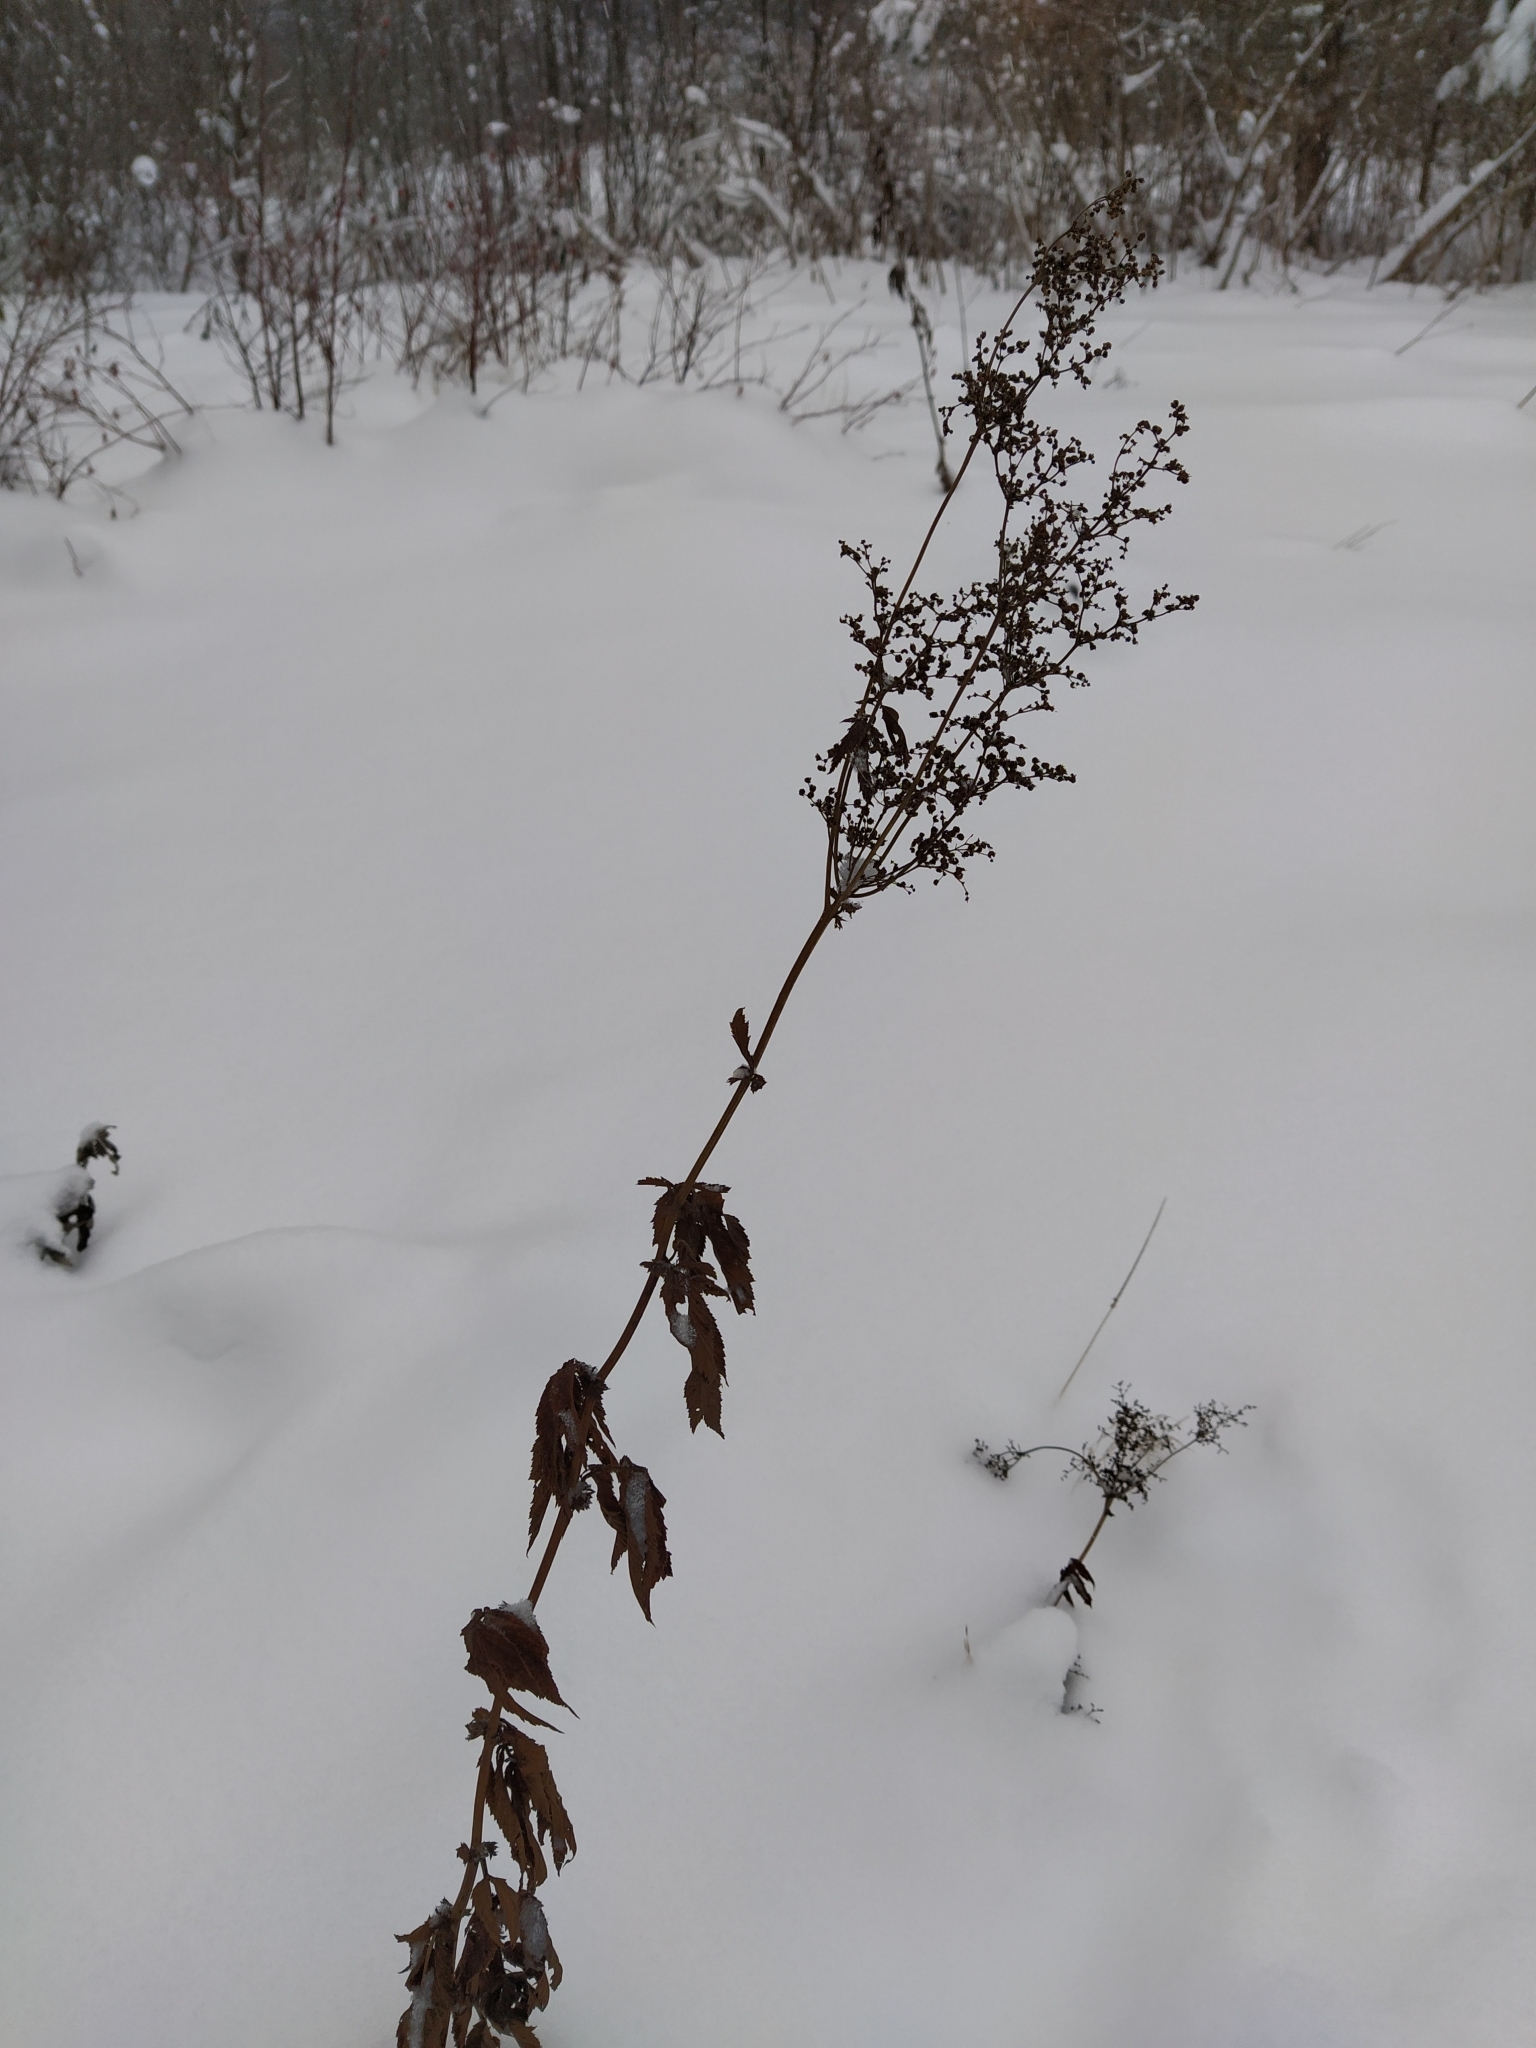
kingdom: Plantae
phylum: Tracheophyta
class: Magnoliopsida
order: Rosales
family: Rosaceae
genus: Filipendula
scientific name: Filipendula ulmaria
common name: Meadowsweet
